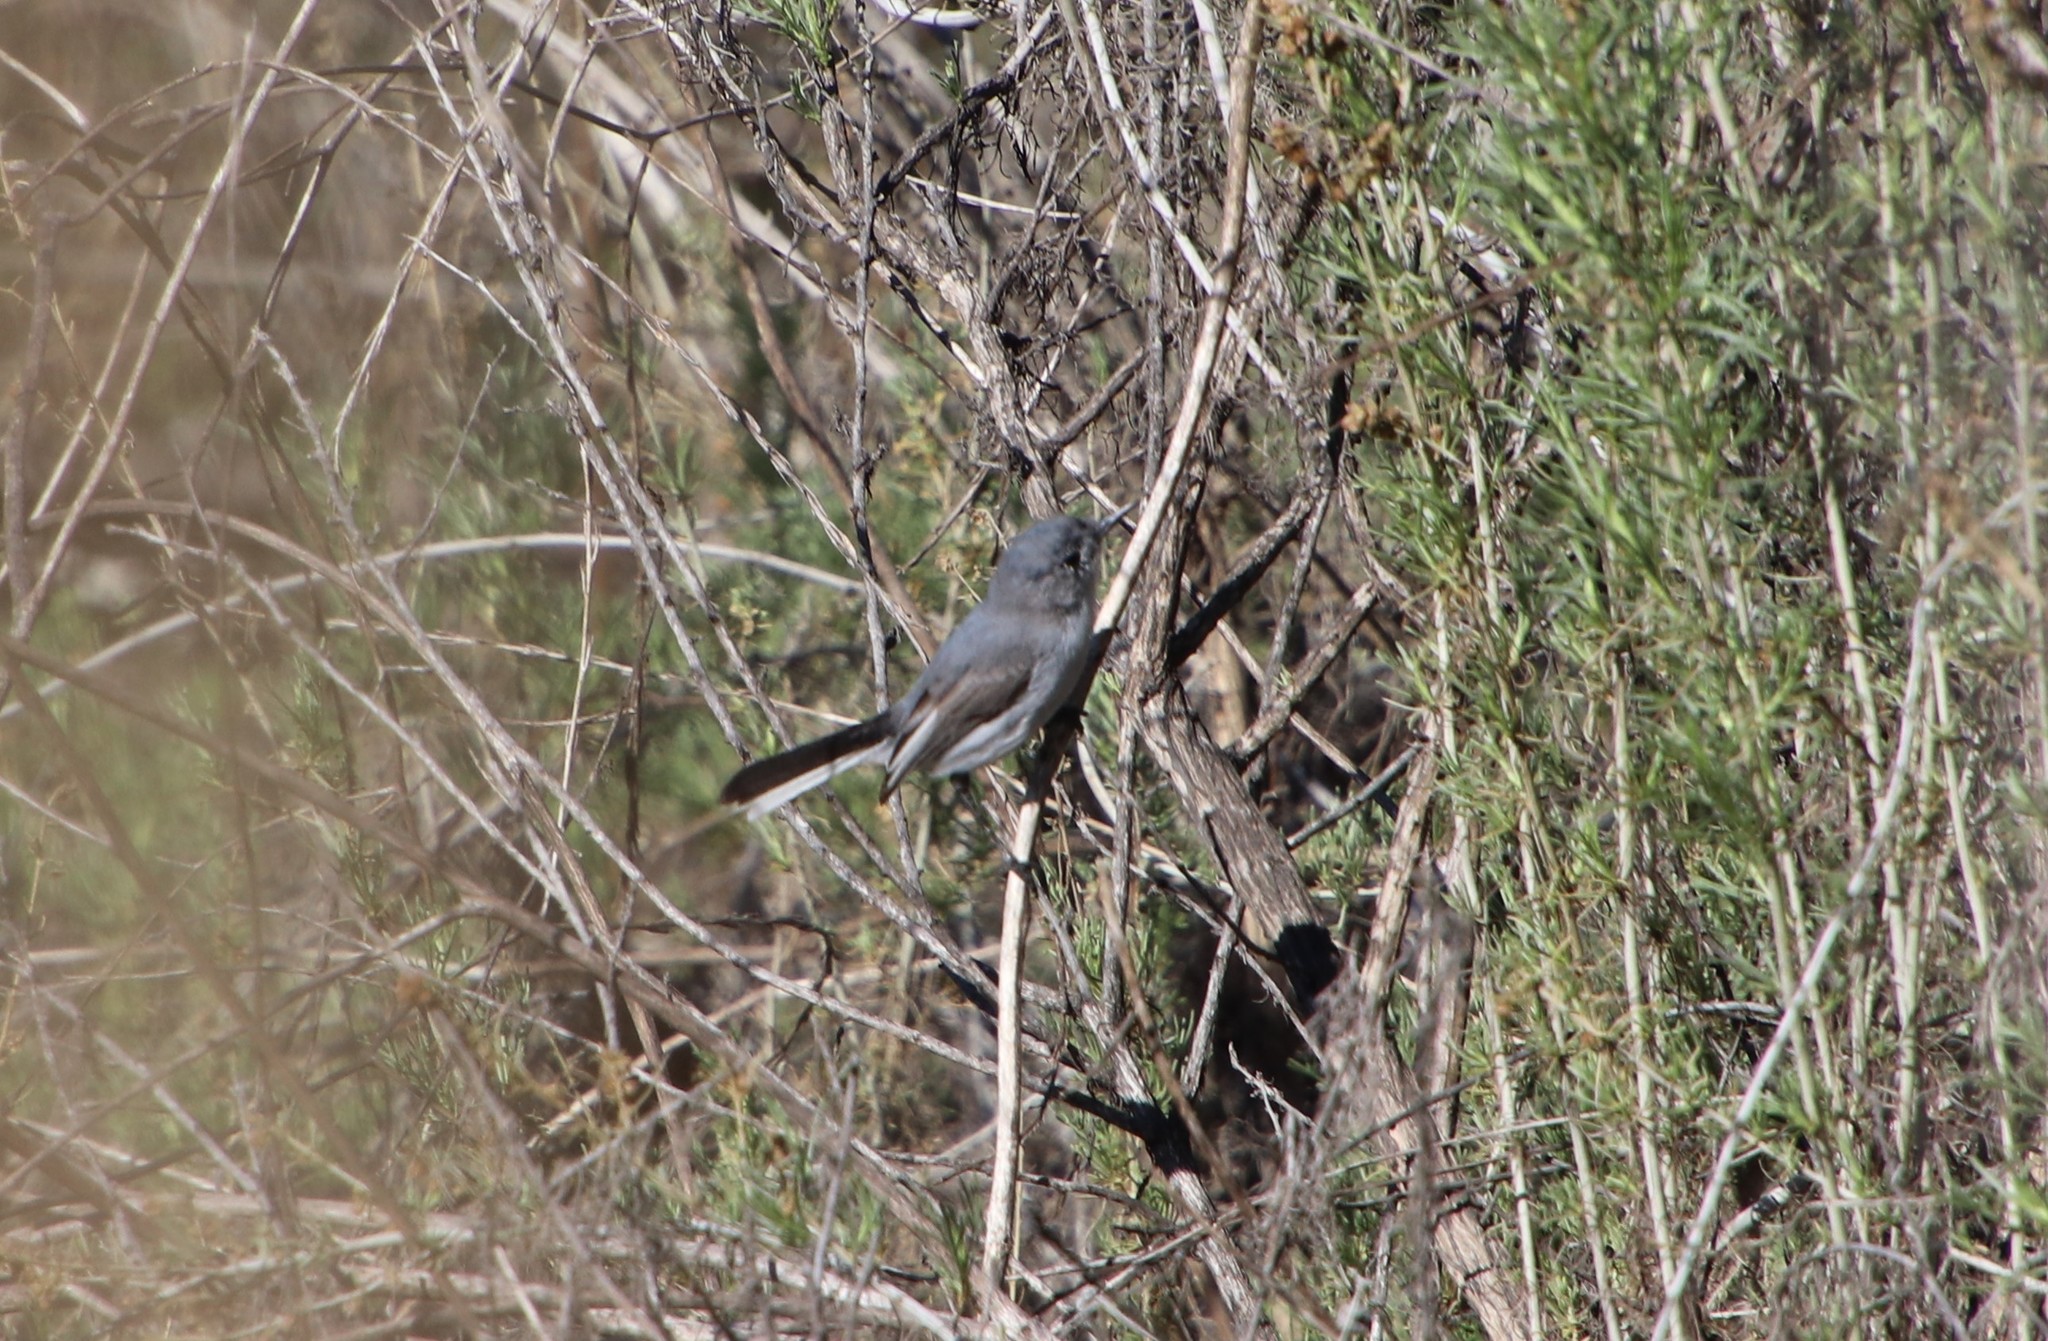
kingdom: Animalia
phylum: Chordata
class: Aves
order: Passeriformes
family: Polioptilidae
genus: Polioptila
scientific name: Polioptila caerulea
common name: Blue-gray gnatcatcher
